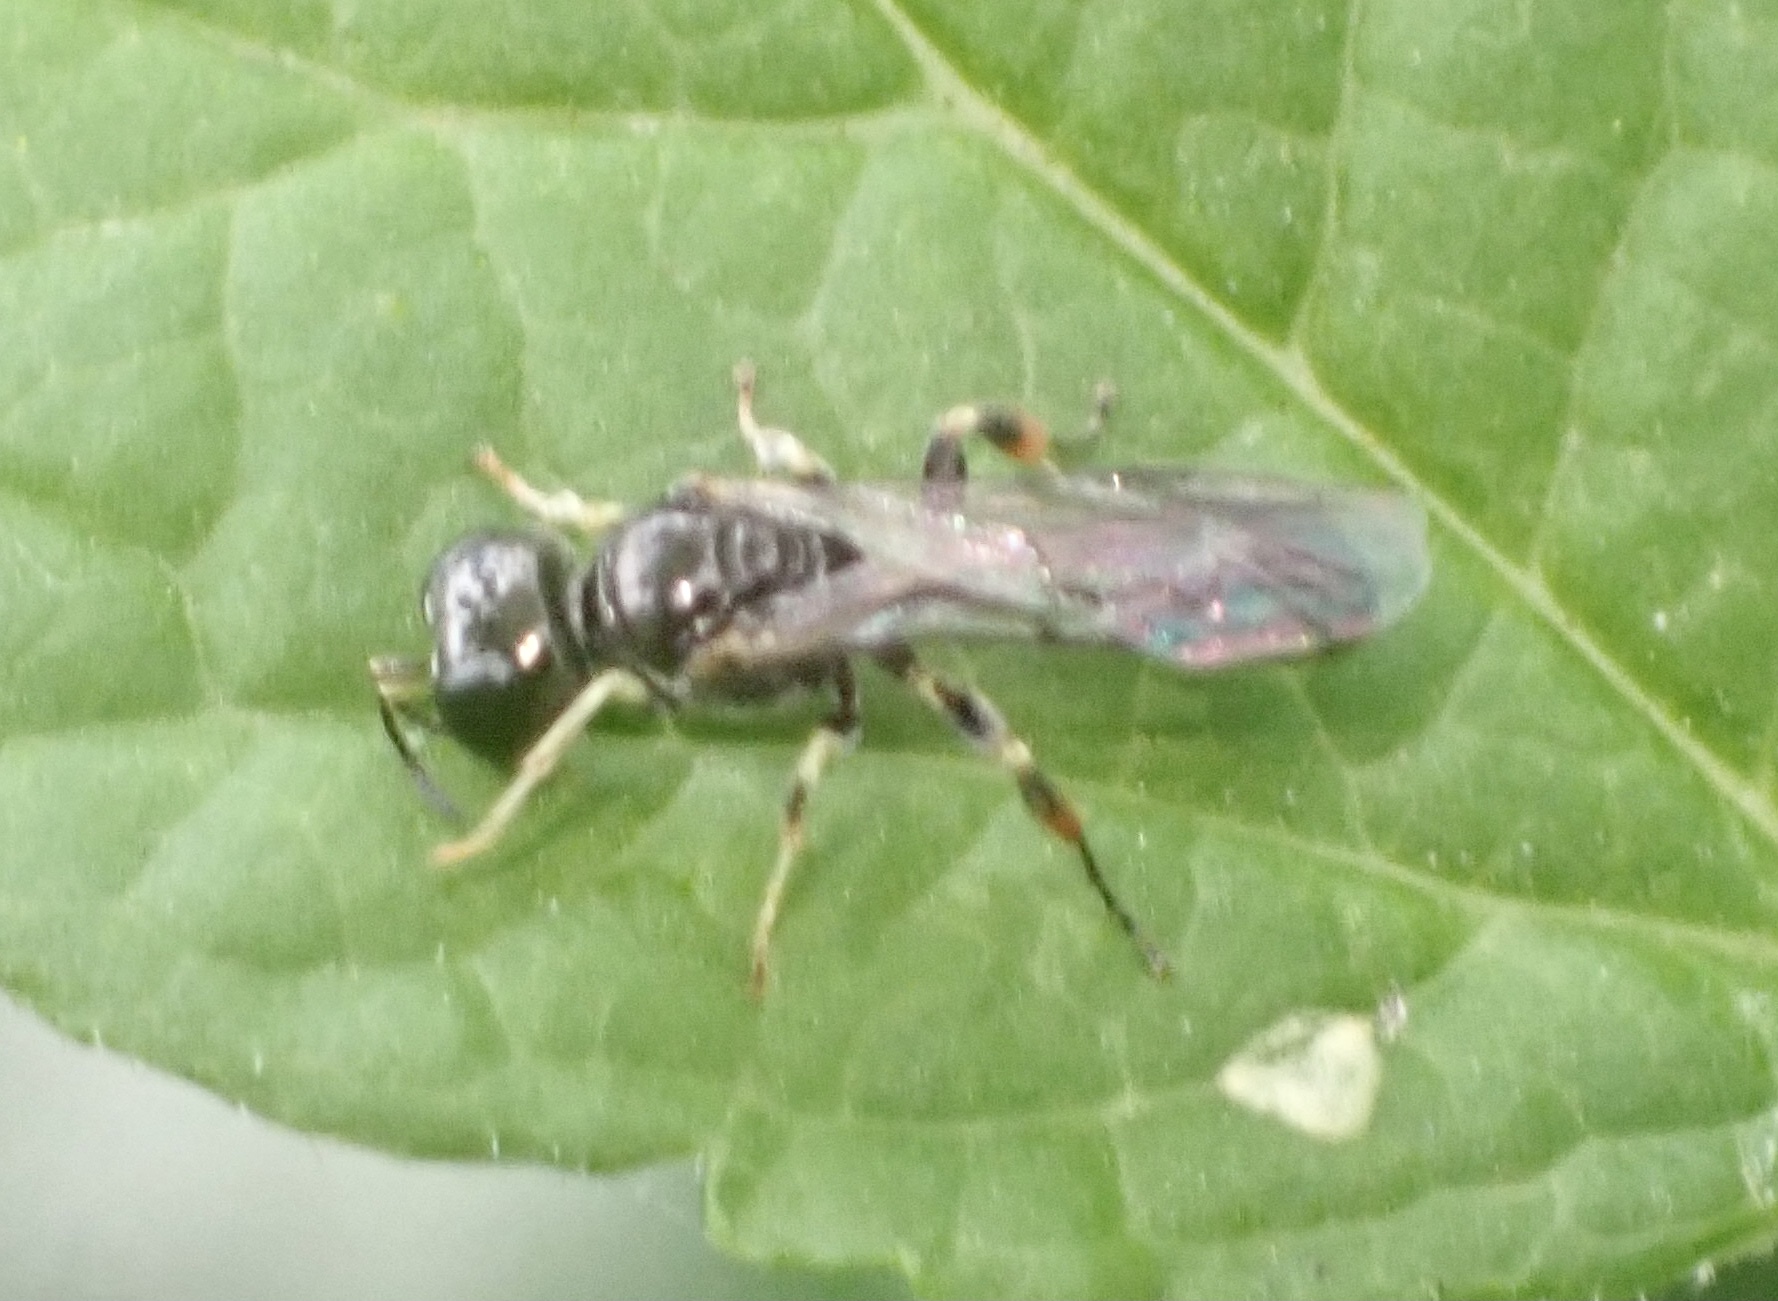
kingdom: Animalia
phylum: Arthropoda
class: Insecta
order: Hymenoptera
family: Crabronidae
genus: Rhopalum
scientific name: Rhopalum coarctatum
